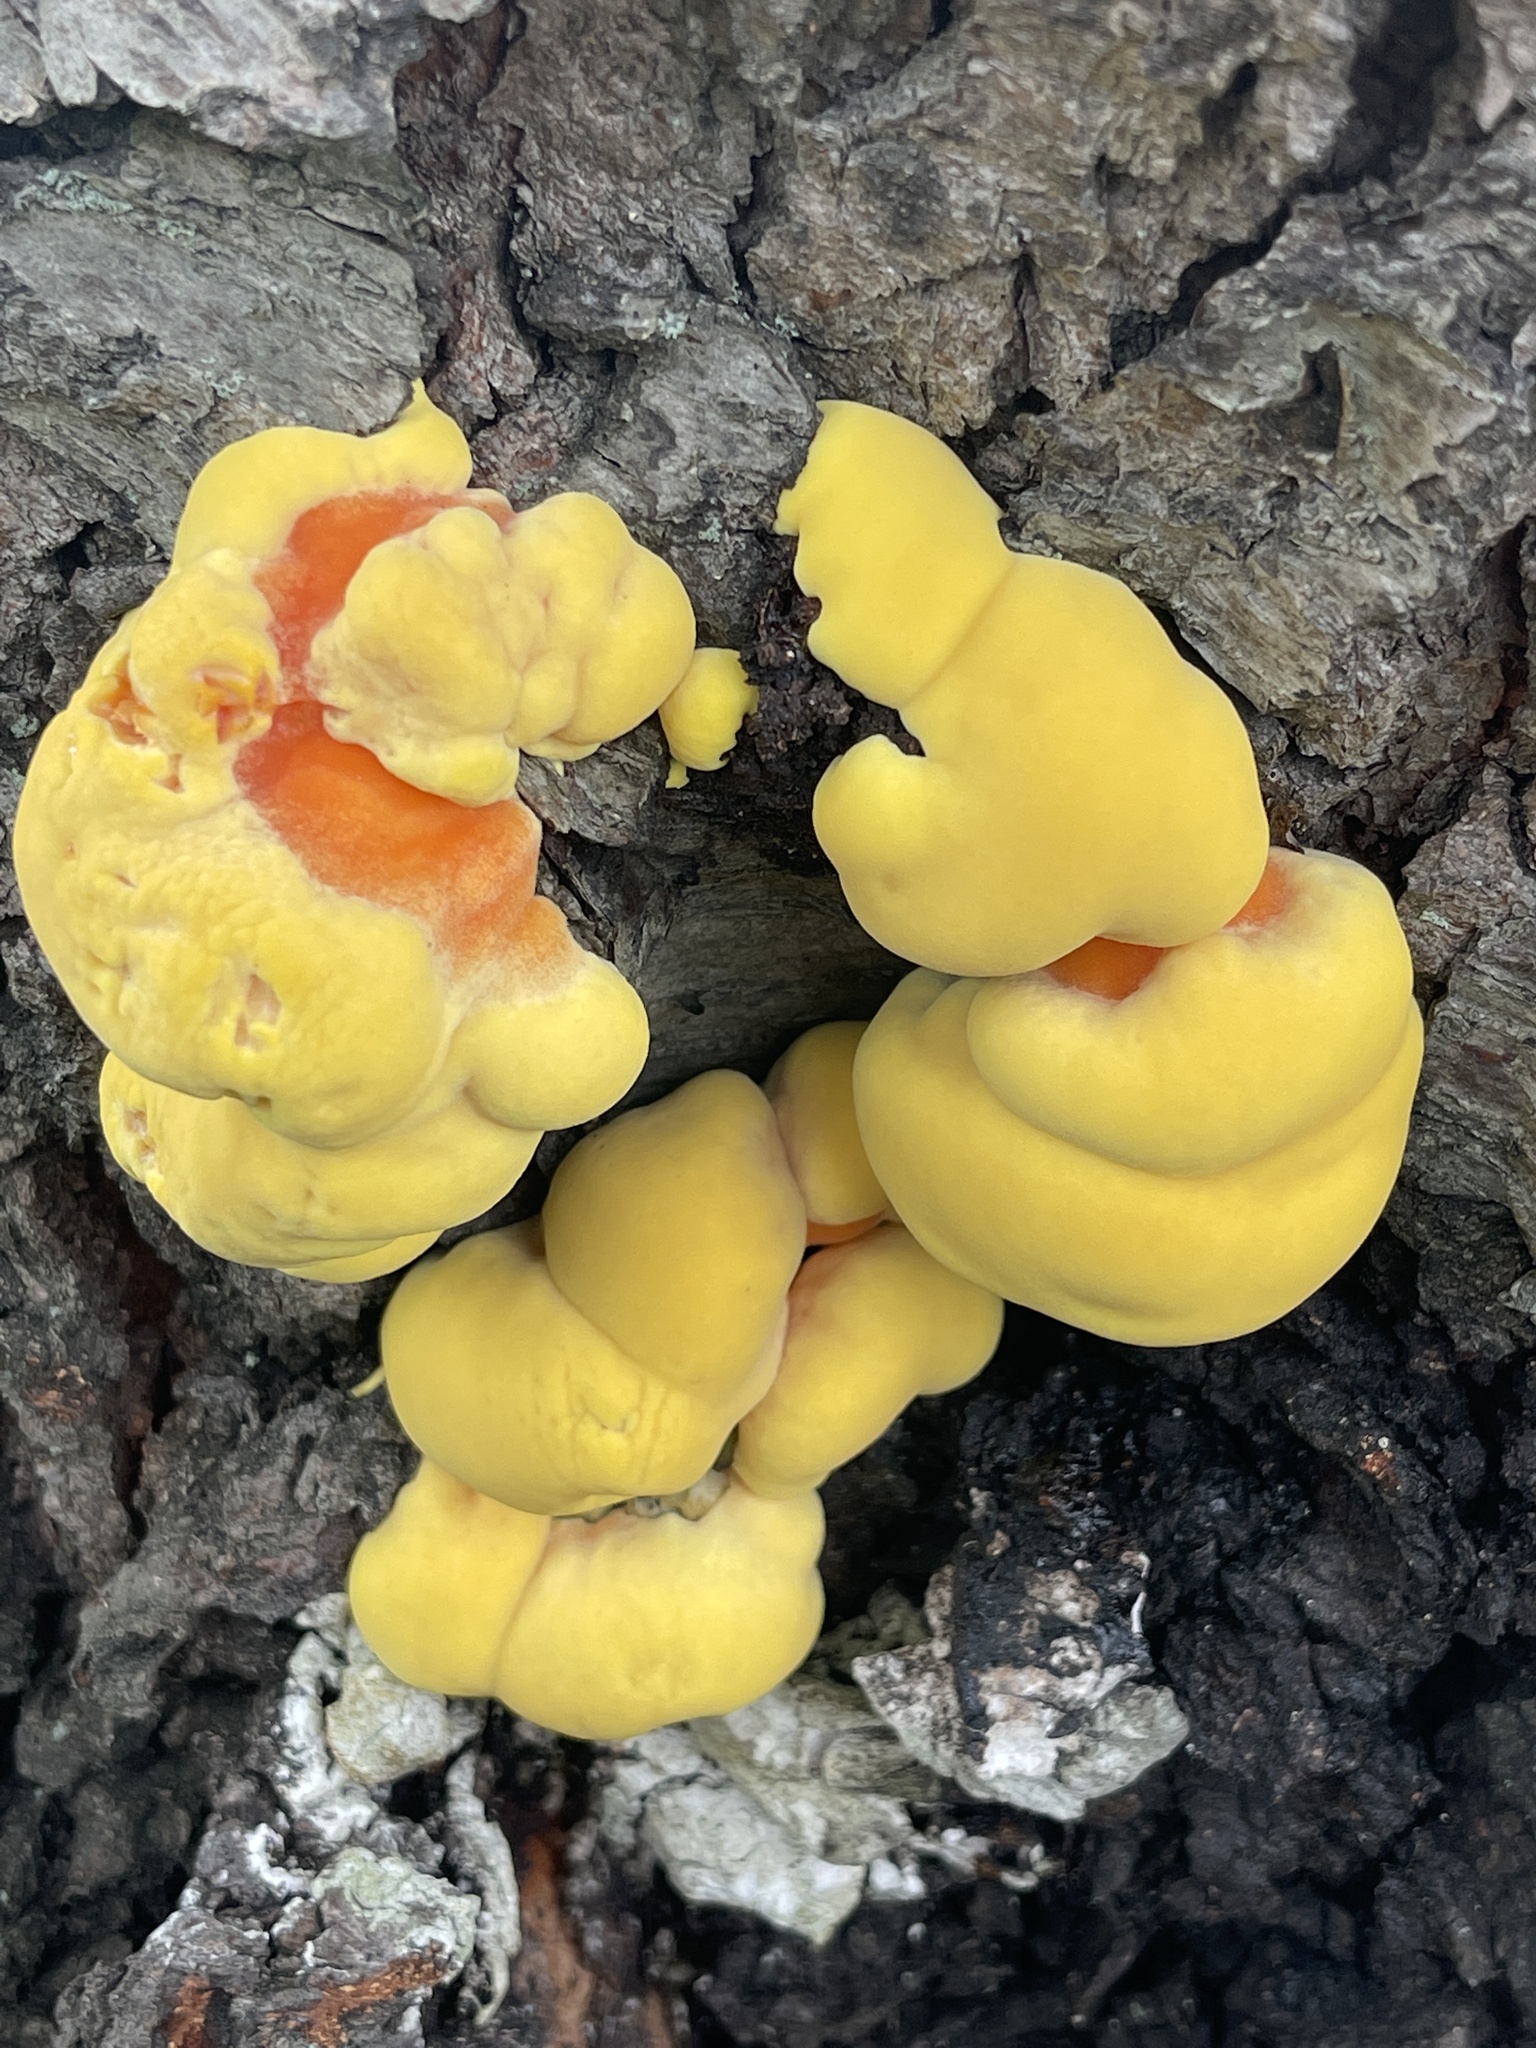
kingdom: Fungi
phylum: Basidiomycota
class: Agaricomycetes
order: Polyporales
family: Laetiporaceae
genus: Laetiporus
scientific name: Laetiporus sulphureus
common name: Chicken of the woods
